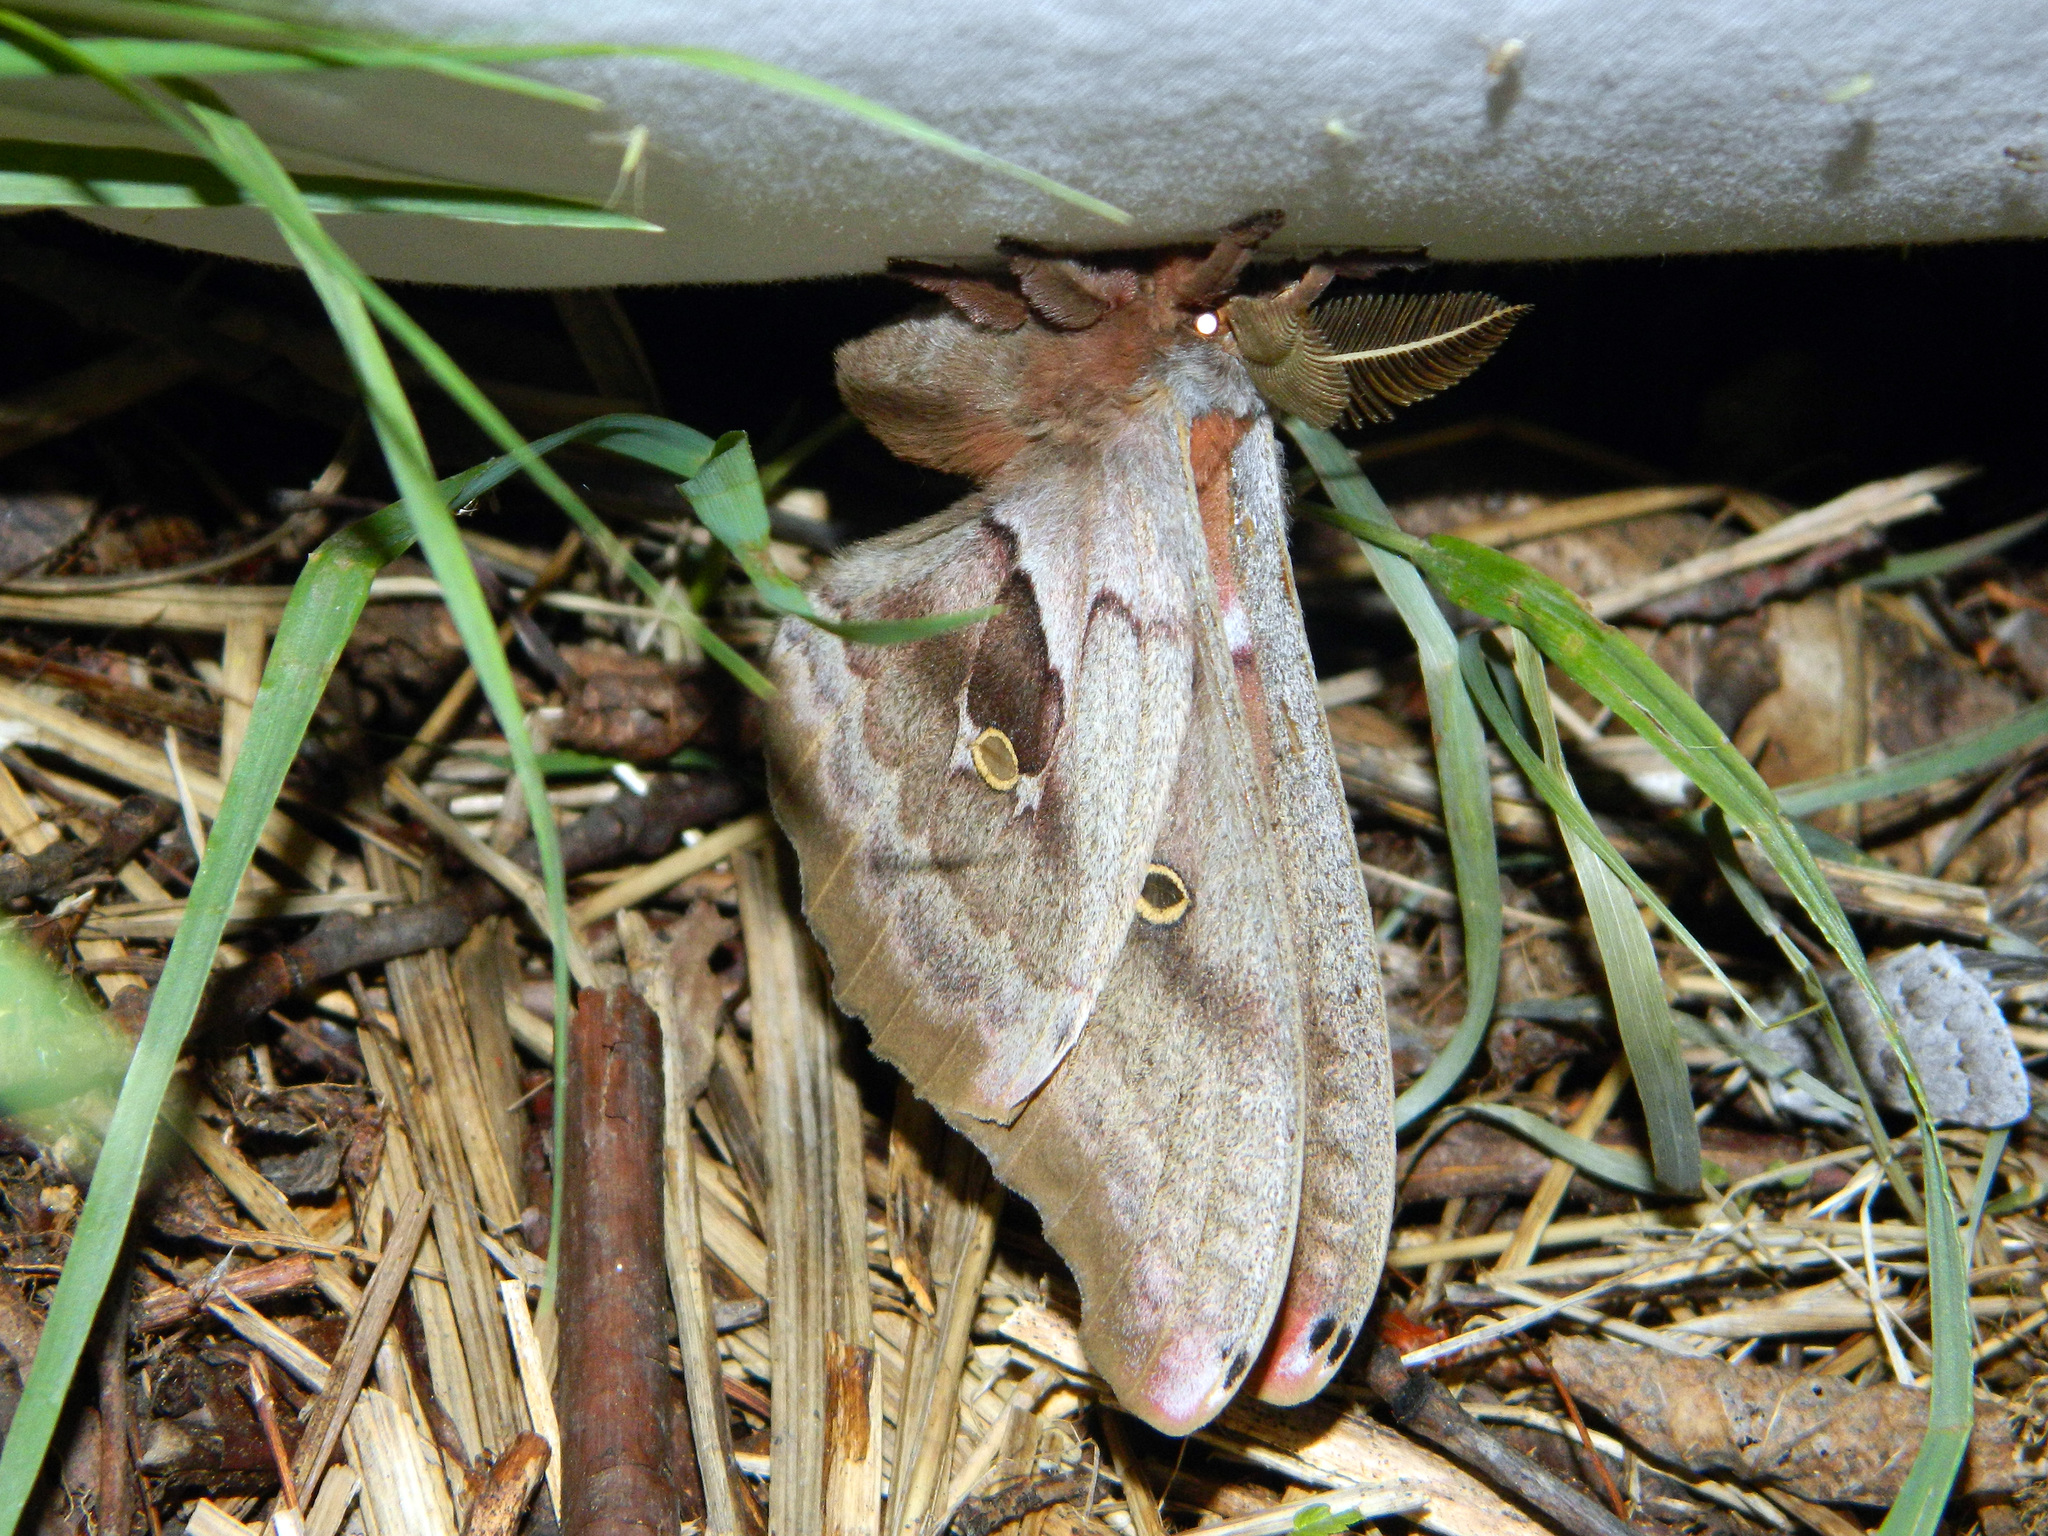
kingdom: Animalia
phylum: Arthropoda
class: Insecta
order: Lepidoptera
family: Saturniidae
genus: Antheraea
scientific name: Antheraea polyphemus
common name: Polyphemus moth
